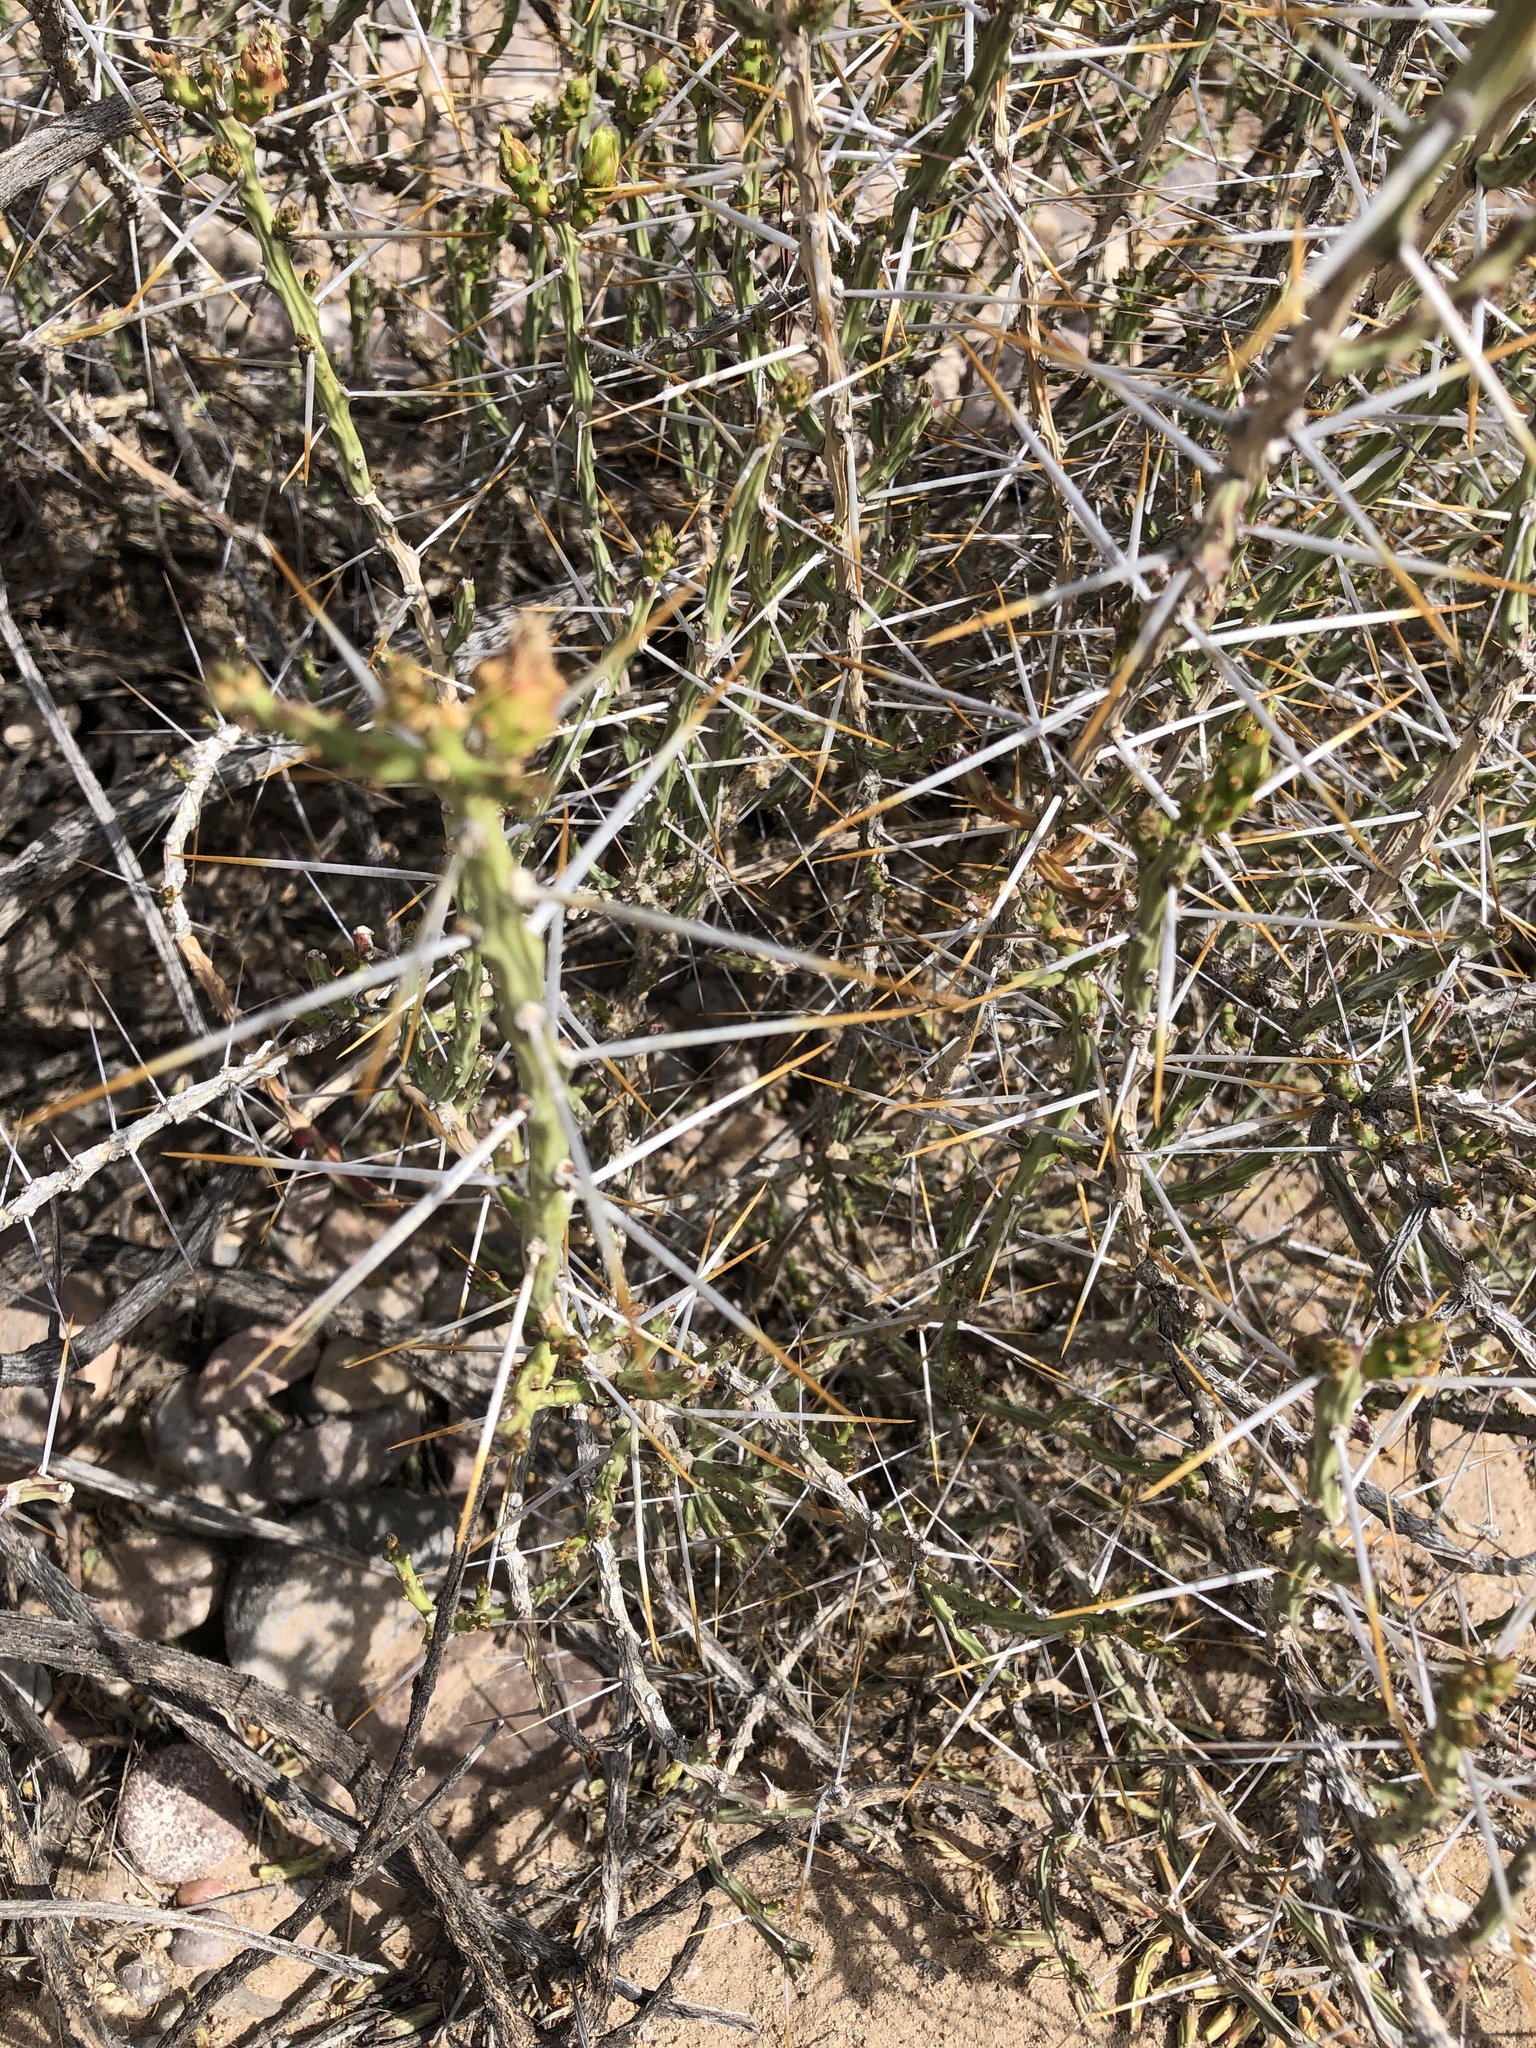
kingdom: Plantae
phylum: Tracheophyta
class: Magnoliopsida
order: Caryophyllales
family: Cactaceae
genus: Cylindropuntia
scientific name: Cylindropuntia leptocaulis
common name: Christmas cactus
